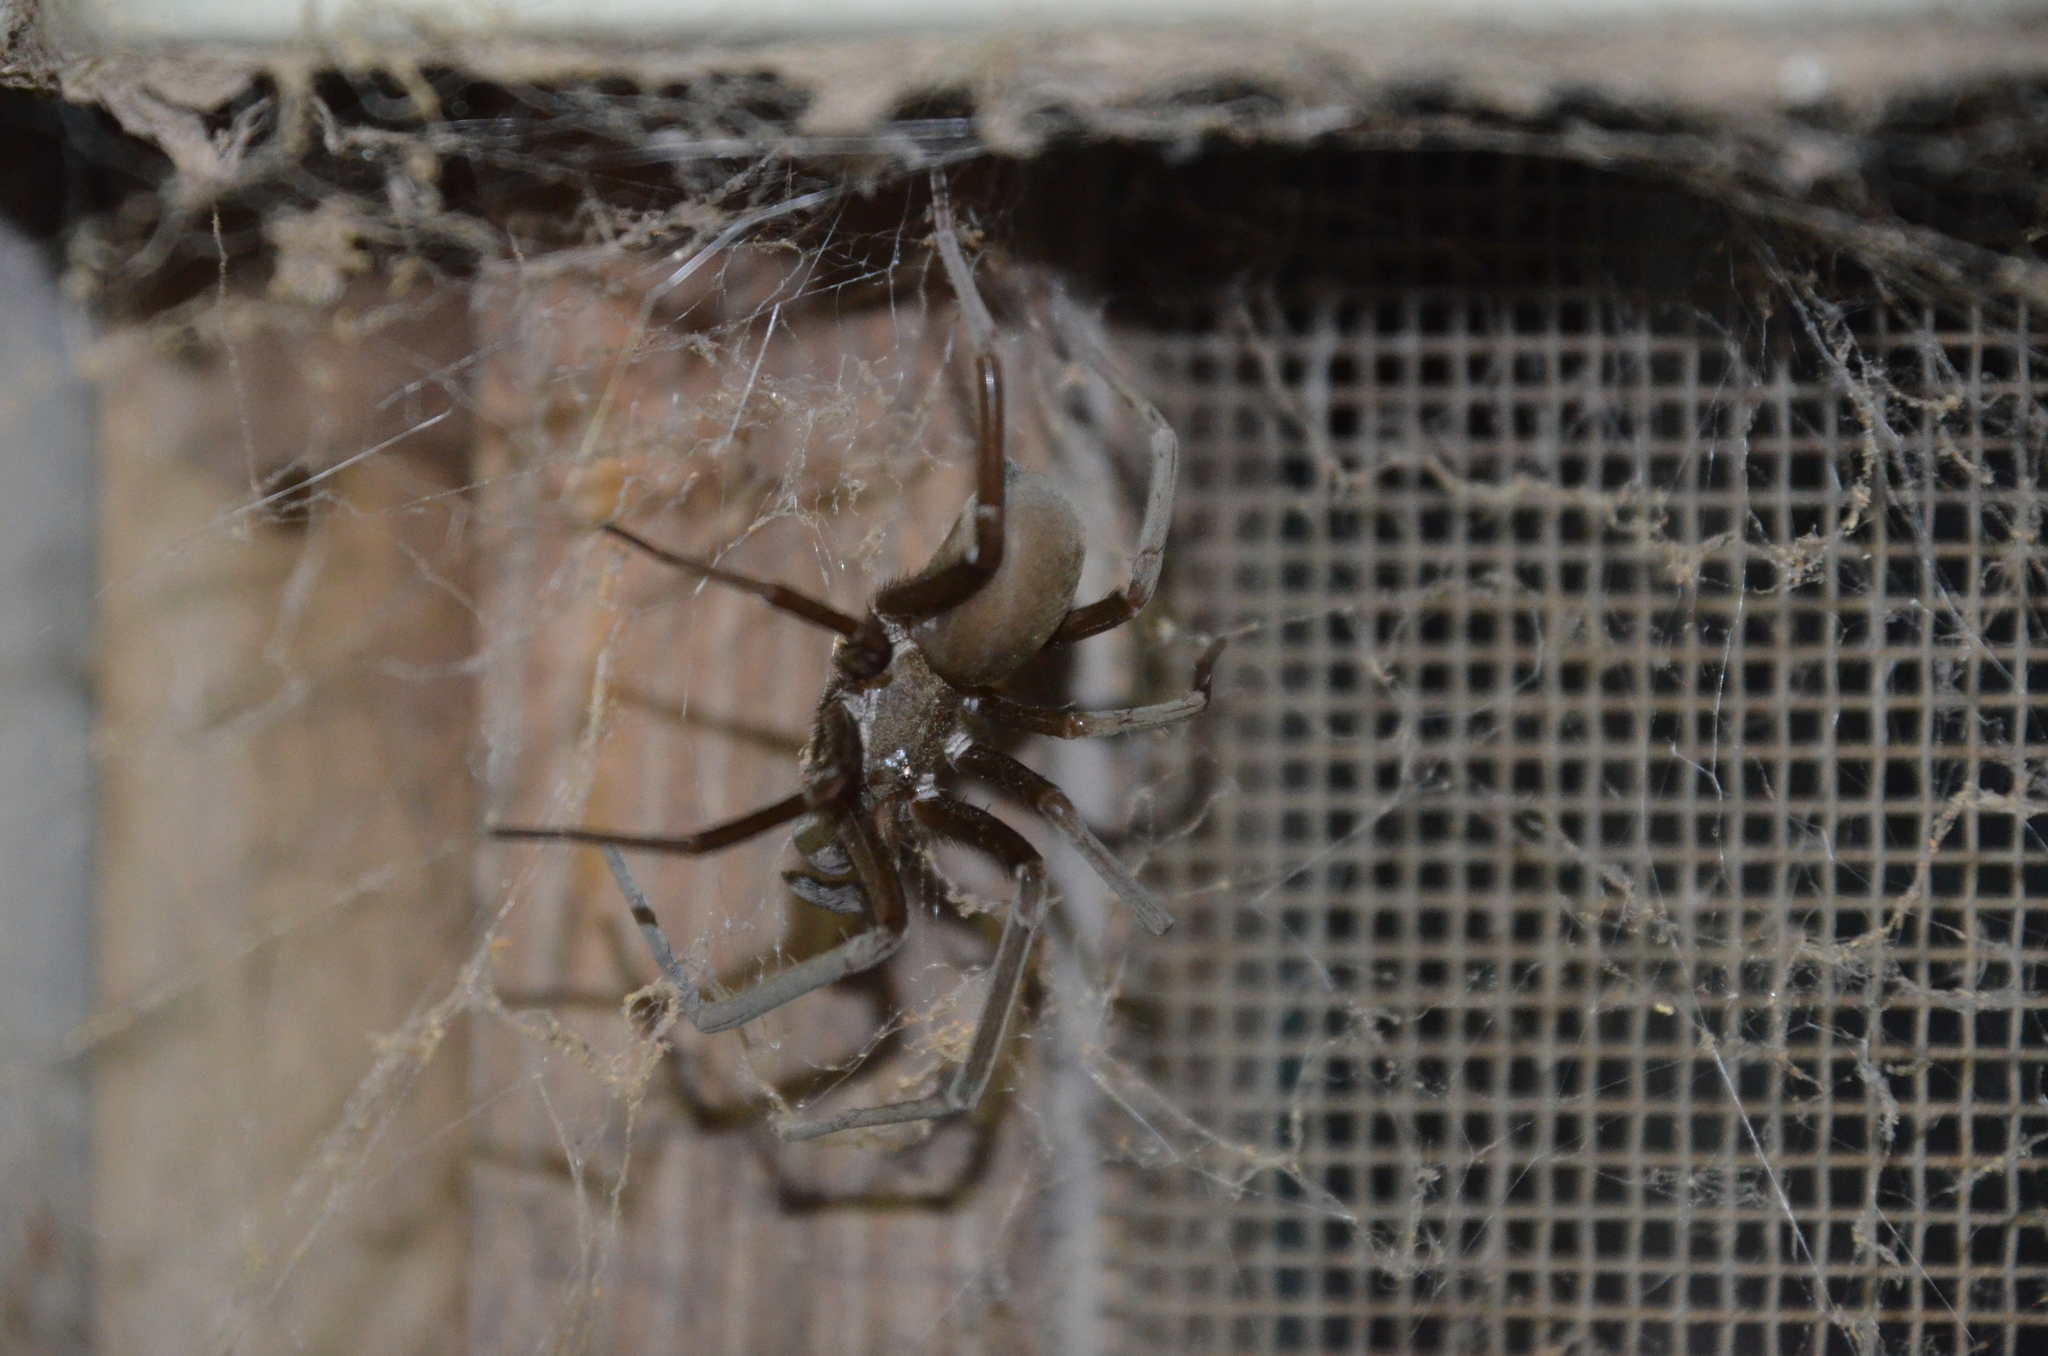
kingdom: Animalia
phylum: Arthropoda
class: Arachnida
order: Araneae
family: Filistatidae
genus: Kukulcania
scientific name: Kukulcania hibernalis
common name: Crevice weaver
